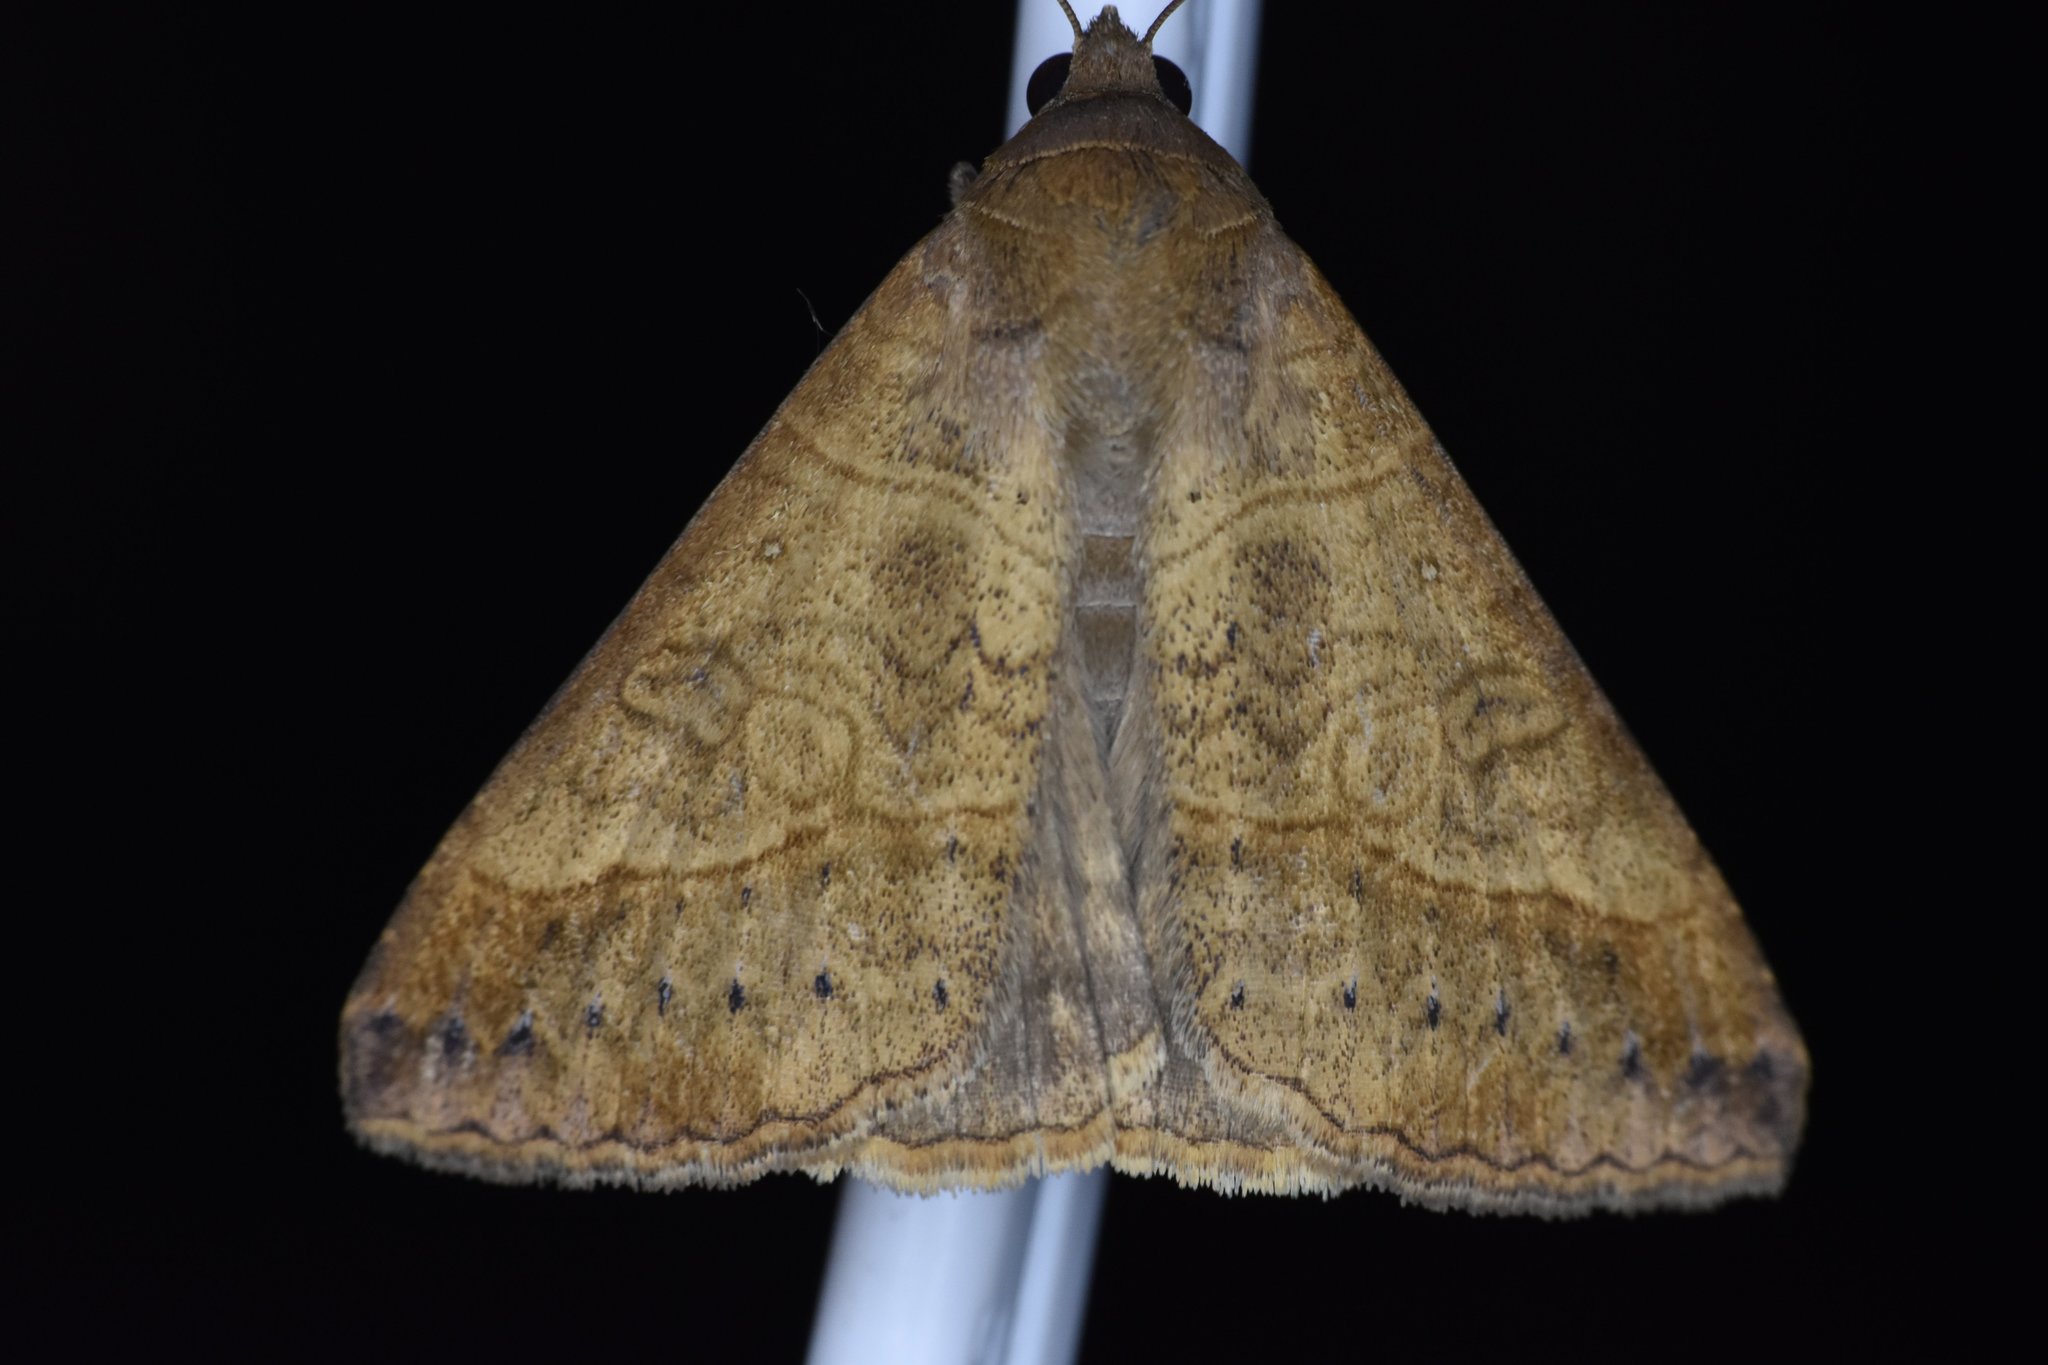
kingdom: Animalia
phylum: Arthropoda
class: Insecta
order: Lepidoptera
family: Erebidae
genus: Mocis
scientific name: Mocis latipes
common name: Striped grass looper
